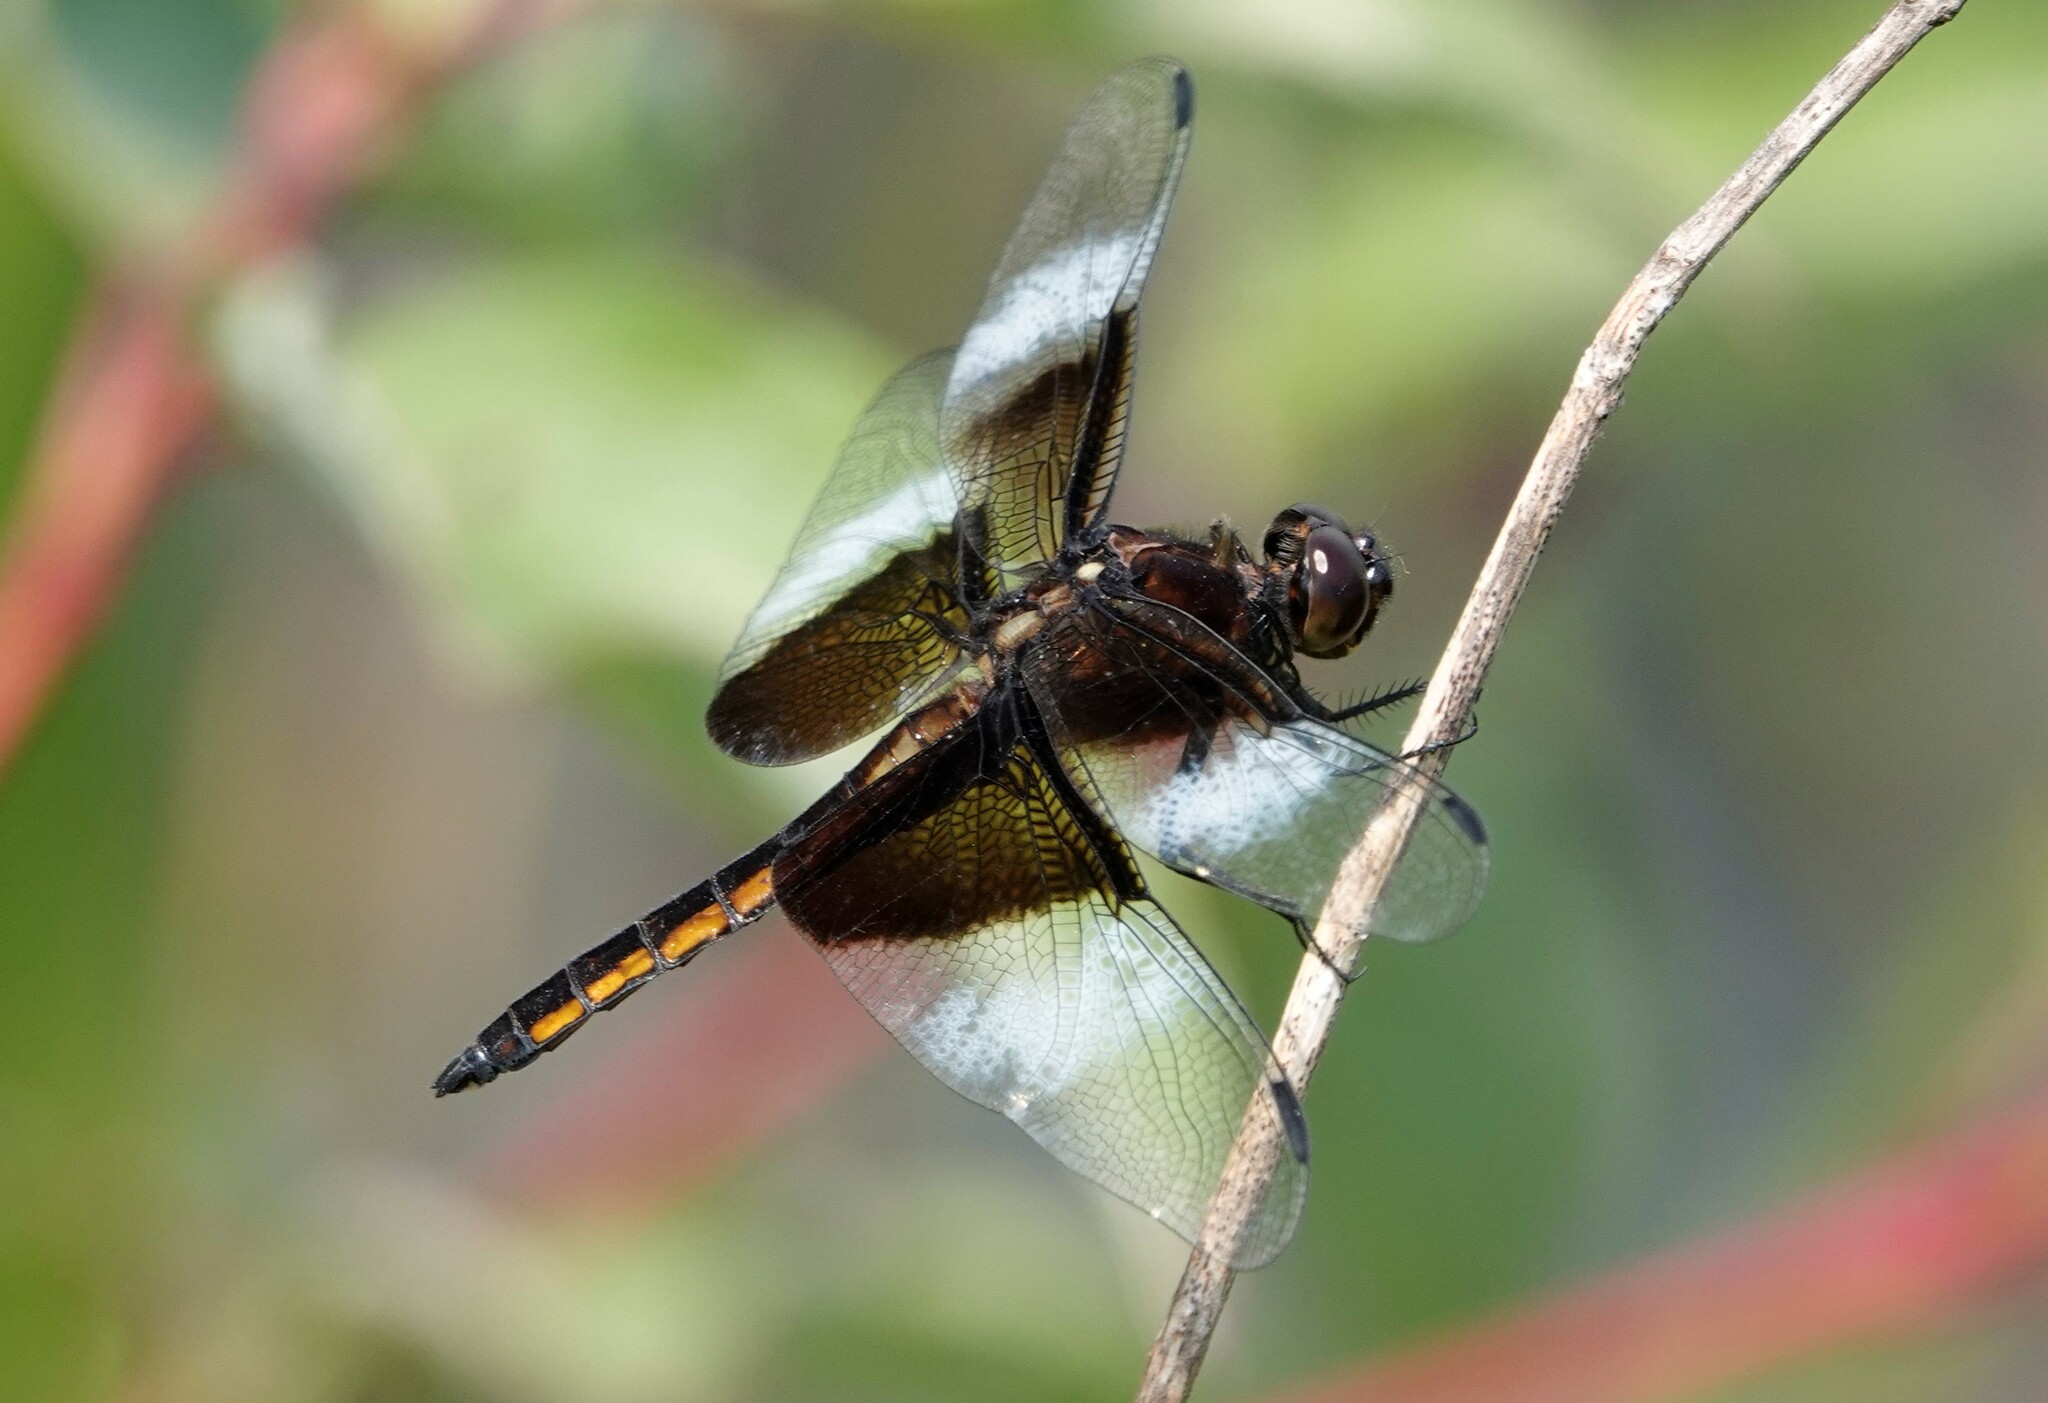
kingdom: Animalia
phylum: Arthropoda
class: Insecta
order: Odonata
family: Libellulidae
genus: Libellula
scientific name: Libellula luctuosa
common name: Widow skimmer
